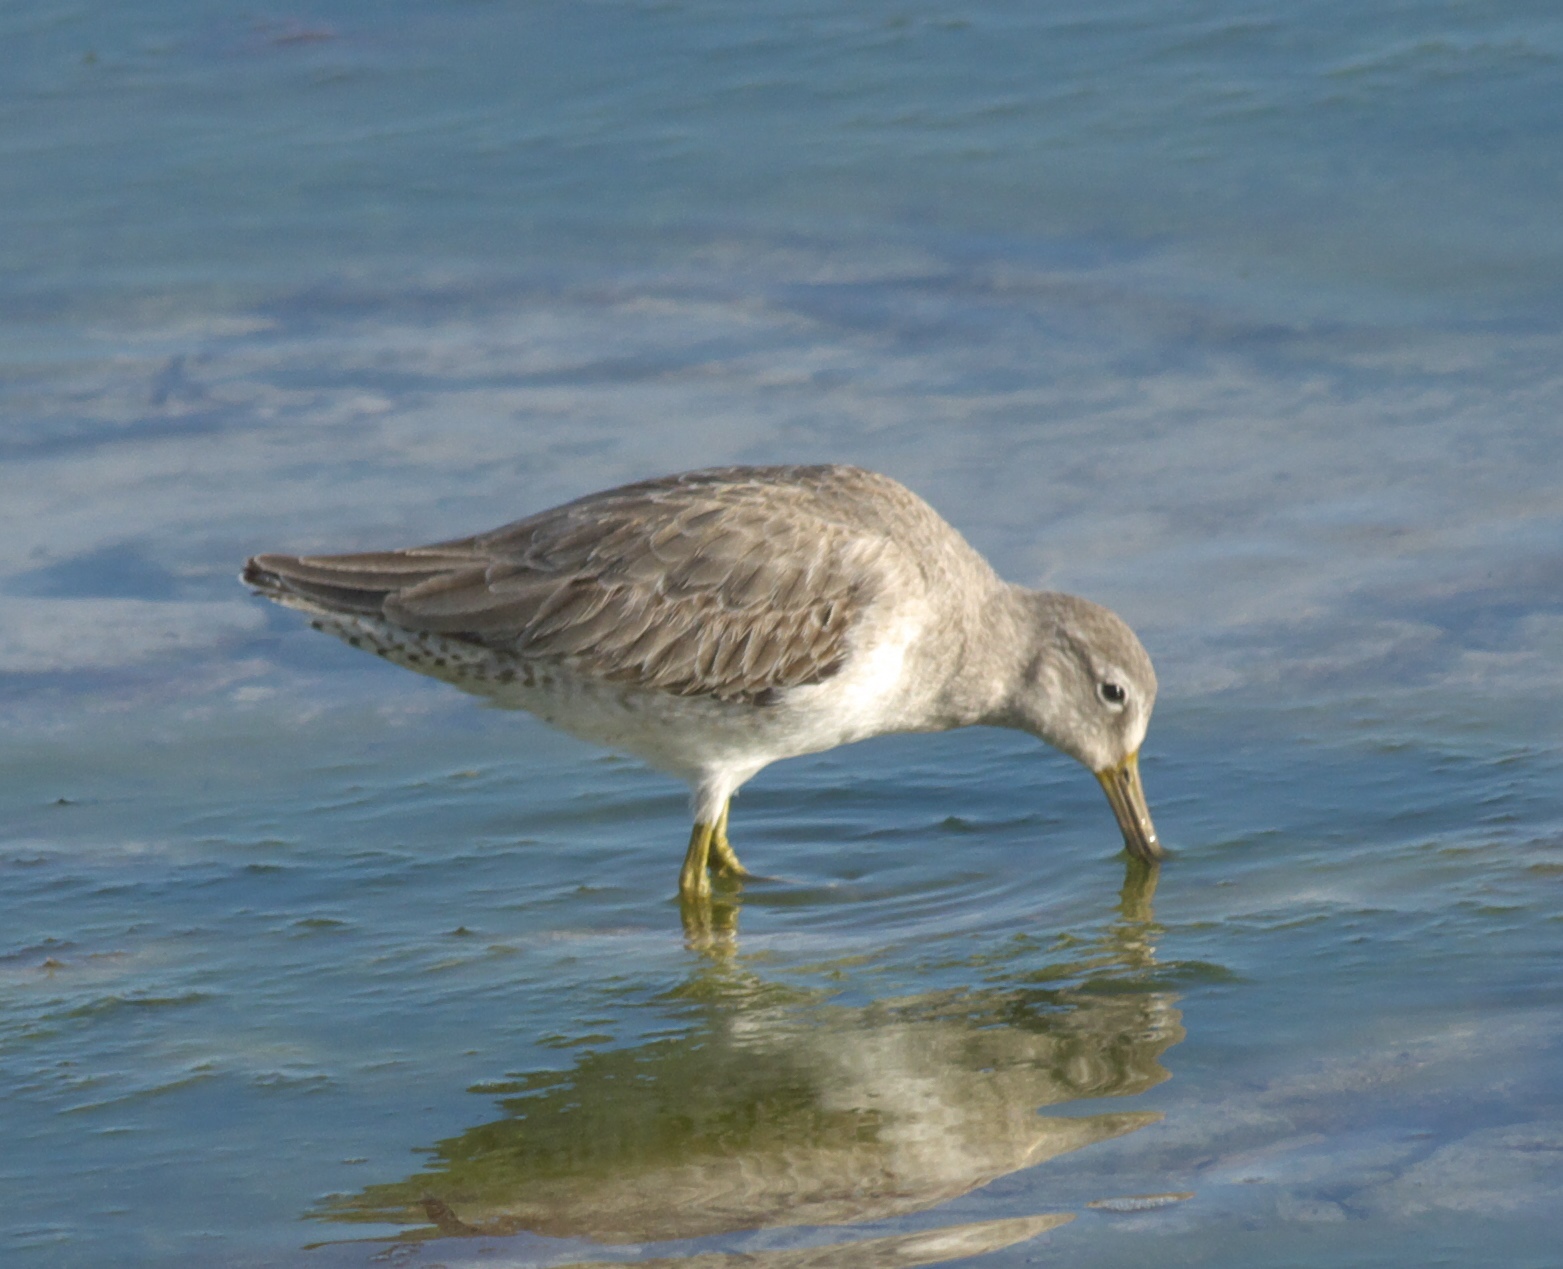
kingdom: Animalia
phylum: Chordata
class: Aves
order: Charadriiformes
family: Scolopacidae
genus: Limnodromus
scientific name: Limnodromus griseus
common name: Short-billed dowitcher
